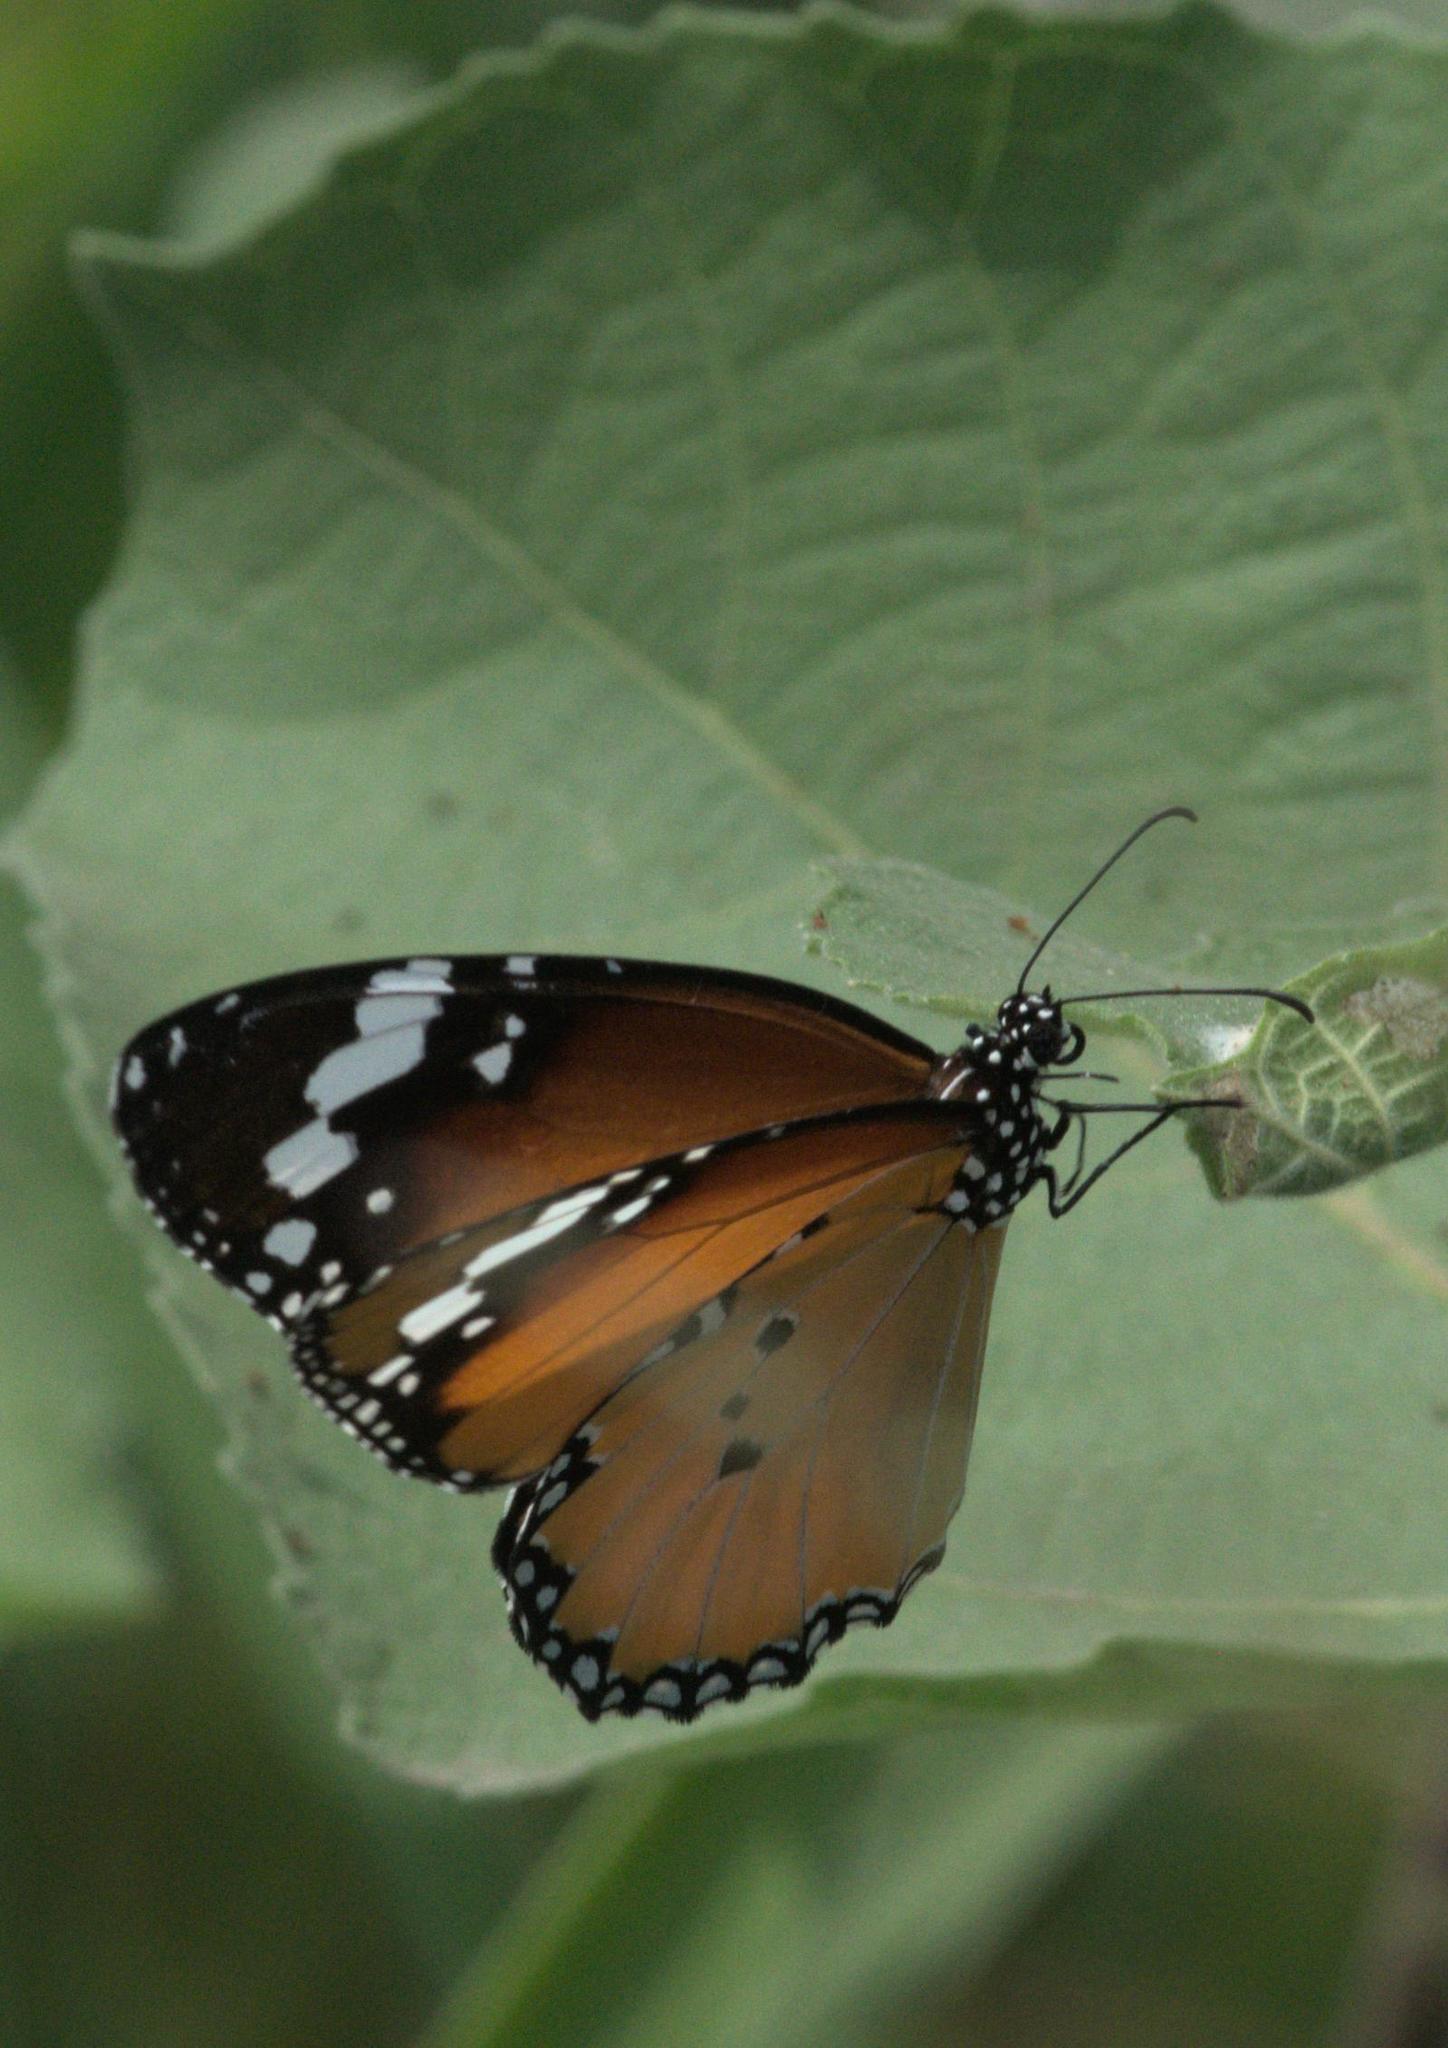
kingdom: Animalia
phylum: Arthropoda
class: Insecta
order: Lepidoptera
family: Nymphalidae
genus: Danaus
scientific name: Danaus chrysippus
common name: Plain tiger
